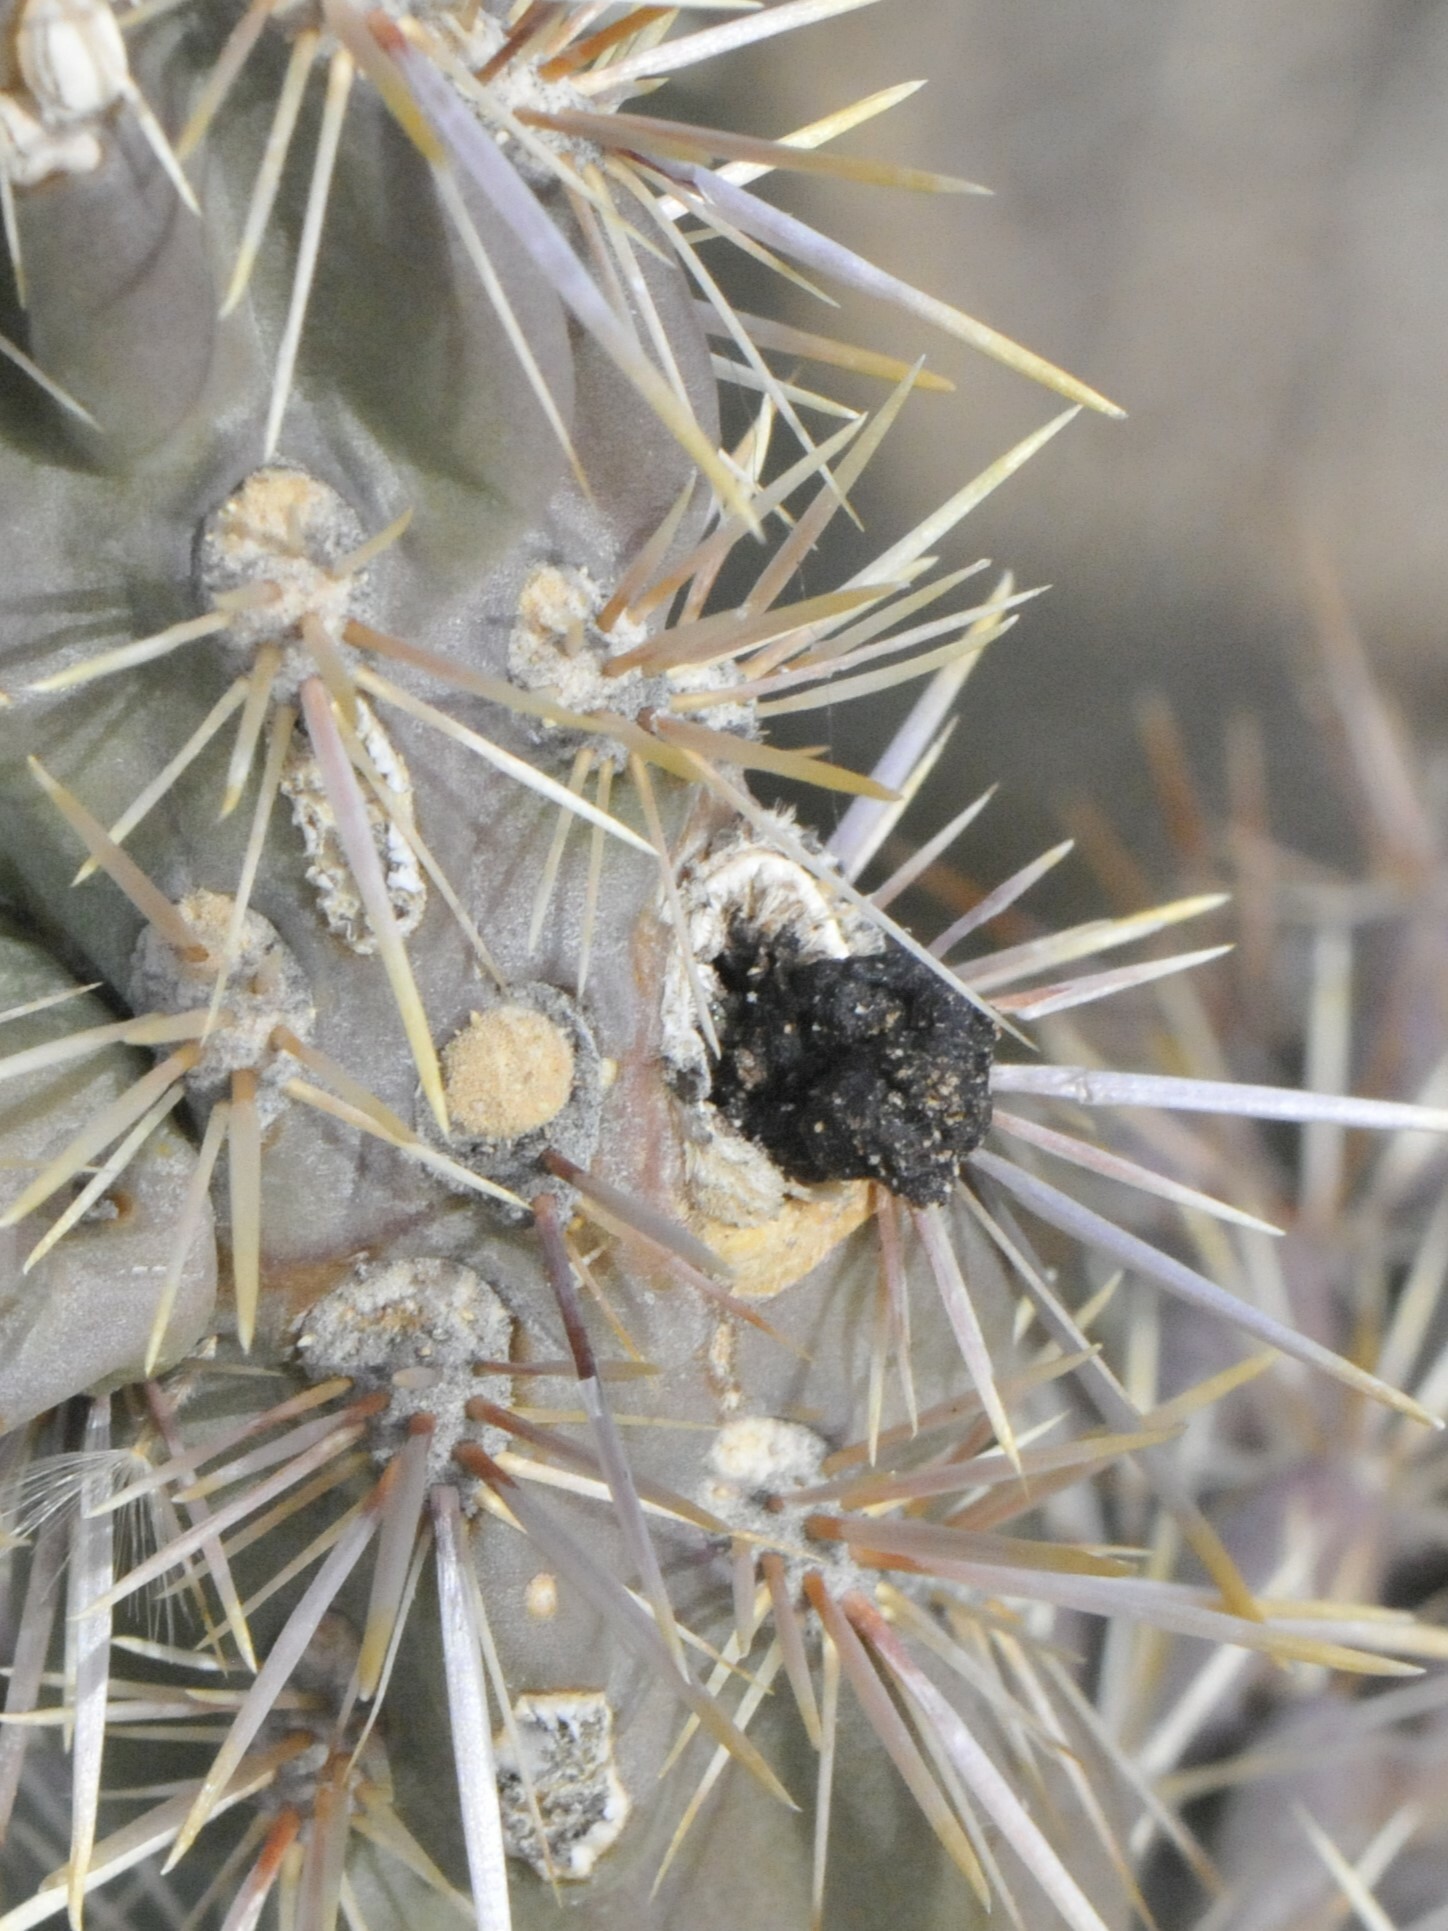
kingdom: Animalia
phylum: Arthropoda
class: Insecta
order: Coleoptera
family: Cerambycidae
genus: Moneilema
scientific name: Moneilema
